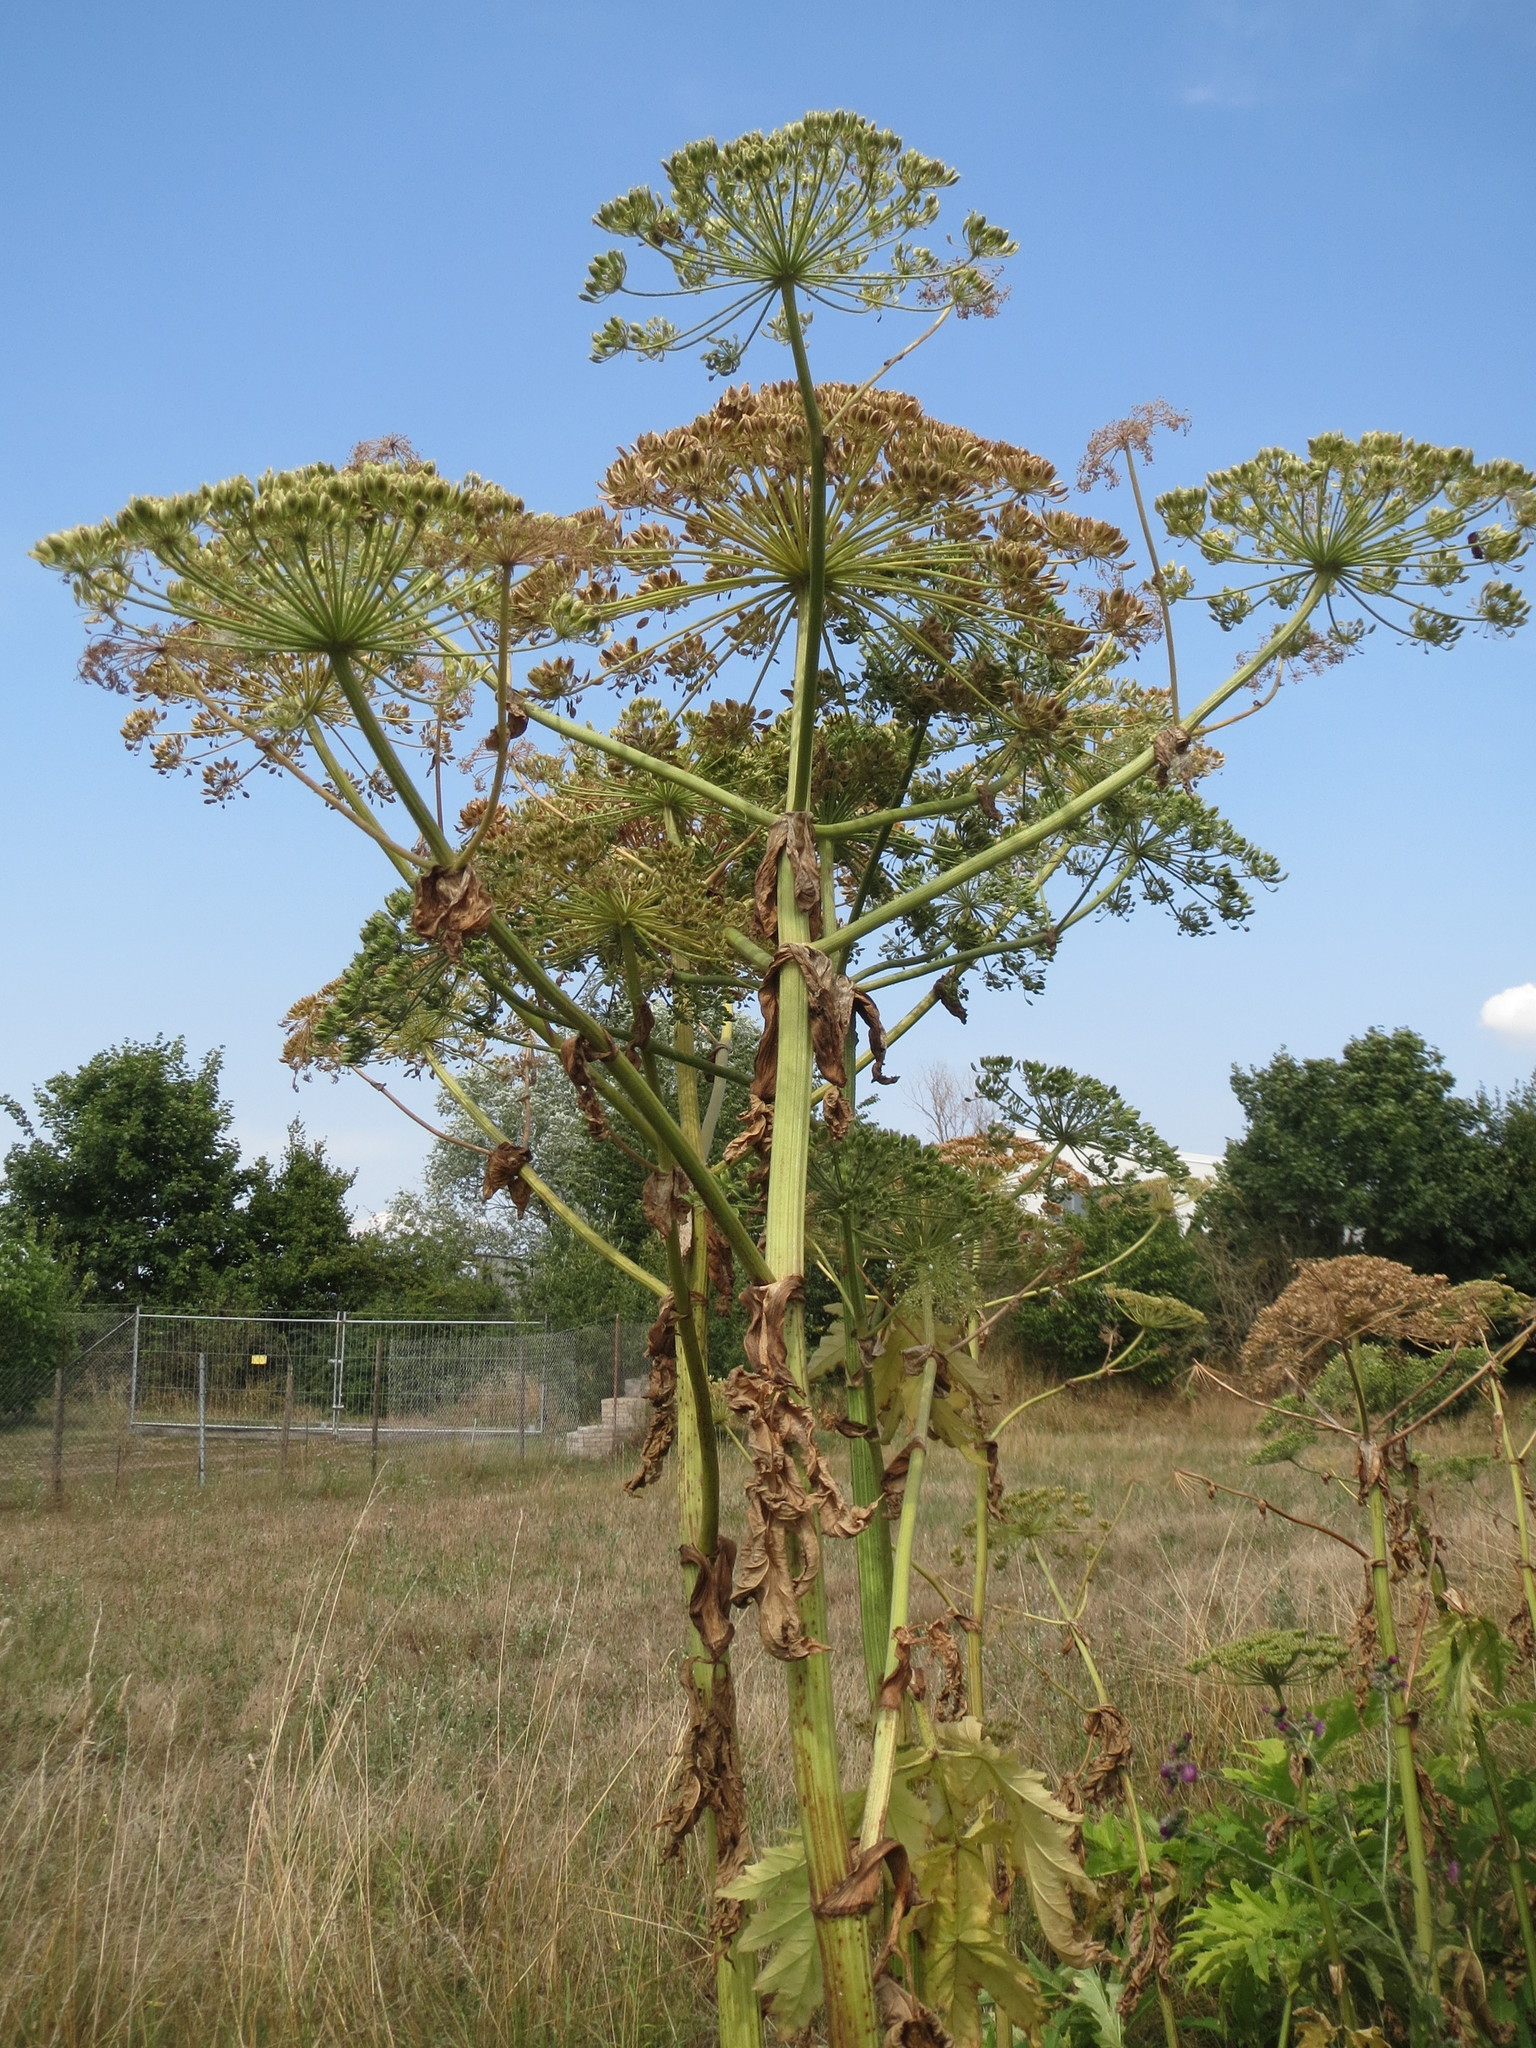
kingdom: Plantae
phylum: Tracheophyta
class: Magnoliopsida
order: Apiales
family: Apiaceae
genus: Heracleum
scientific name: Heracleum mantegazzianum
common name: Giant hogweed
